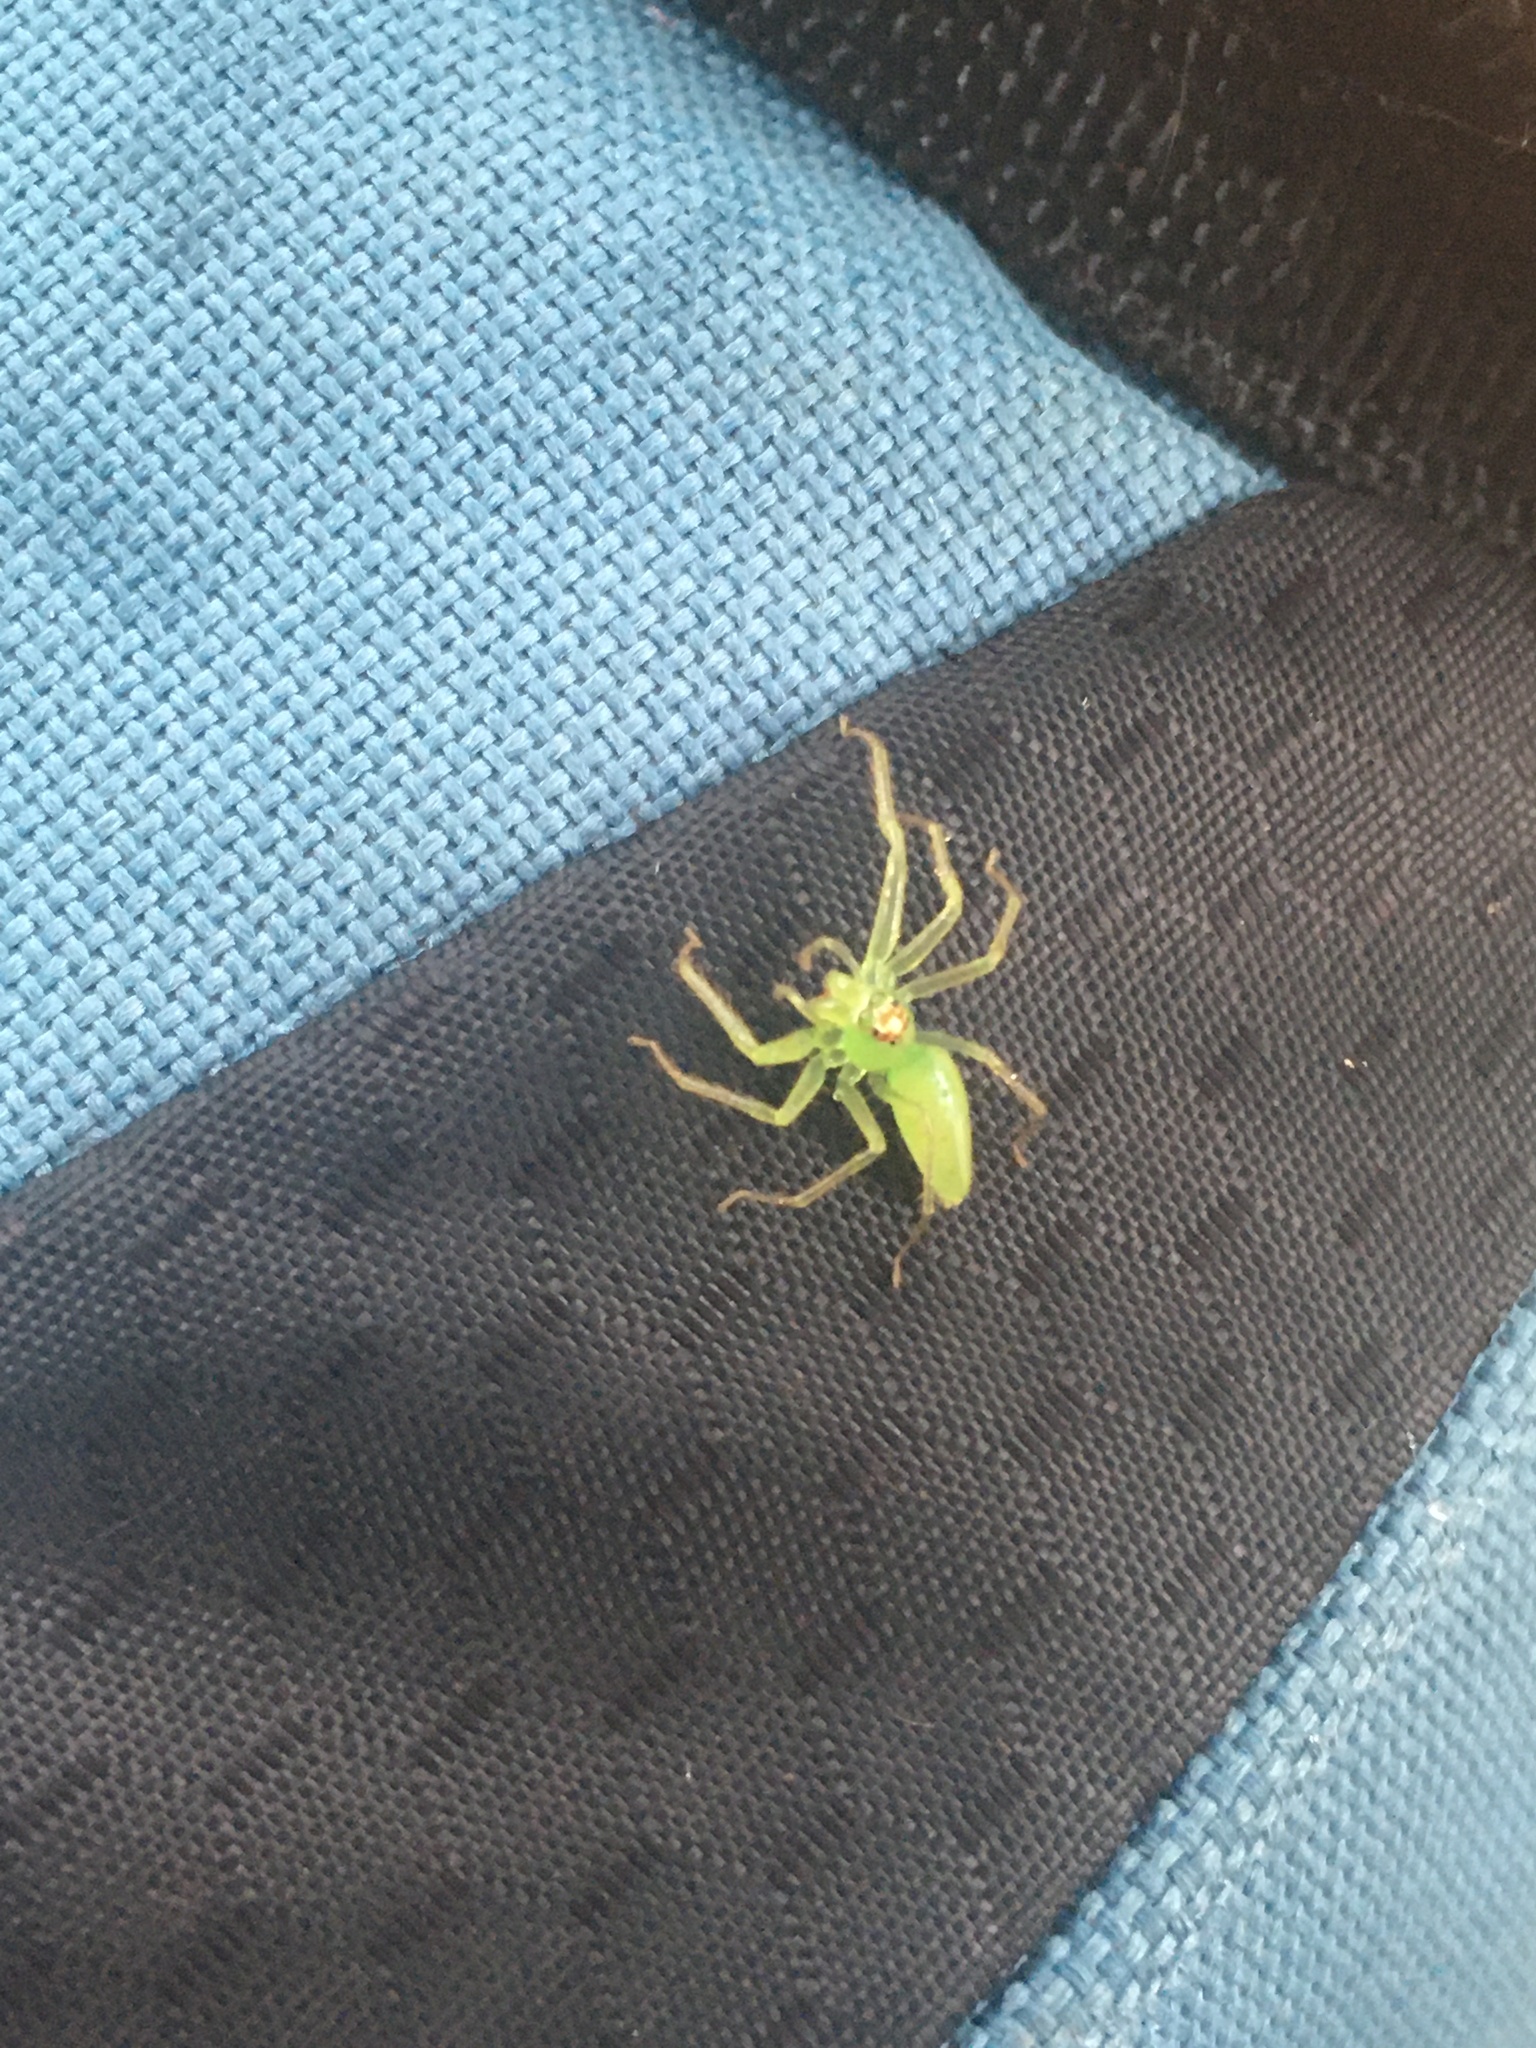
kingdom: Animalia
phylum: Arthropoda
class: Arachnida
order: Araneae
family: Salticidae
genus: Lyssomanes
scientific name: Lyssomanes viridis
